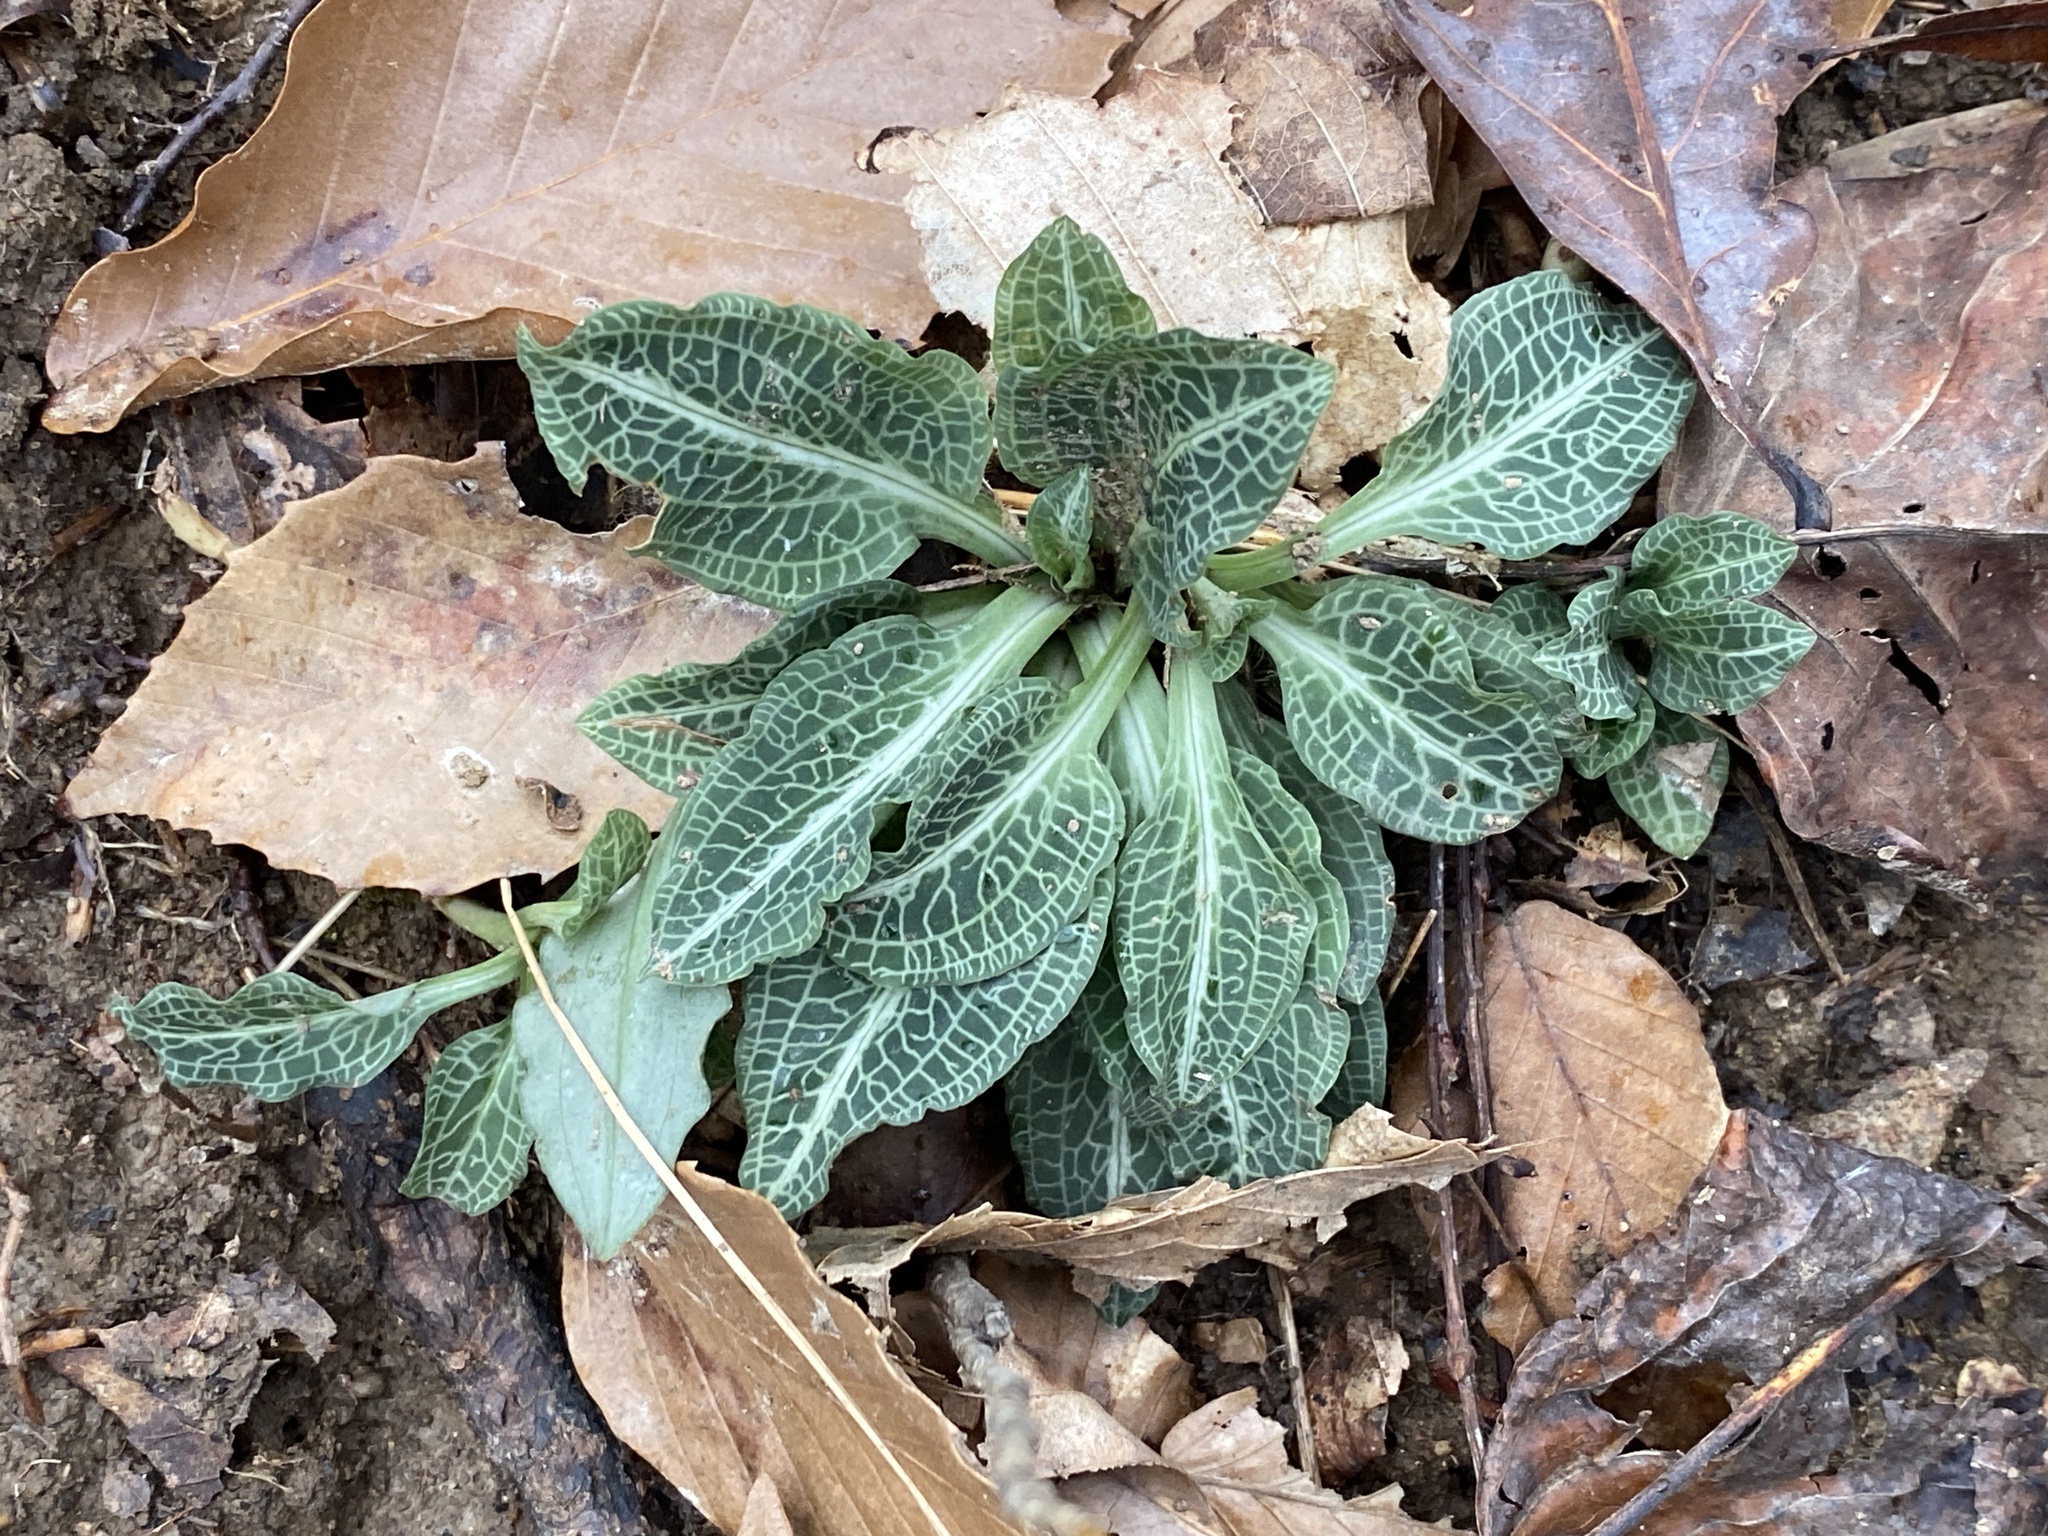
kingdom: Plantae
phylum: Tracheophyta
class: Liliopsida
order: Asparagales
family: Orchidaceae
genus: Goodyera
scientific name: Goodyera pubescens
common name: Downy rattlesnake-plantain
